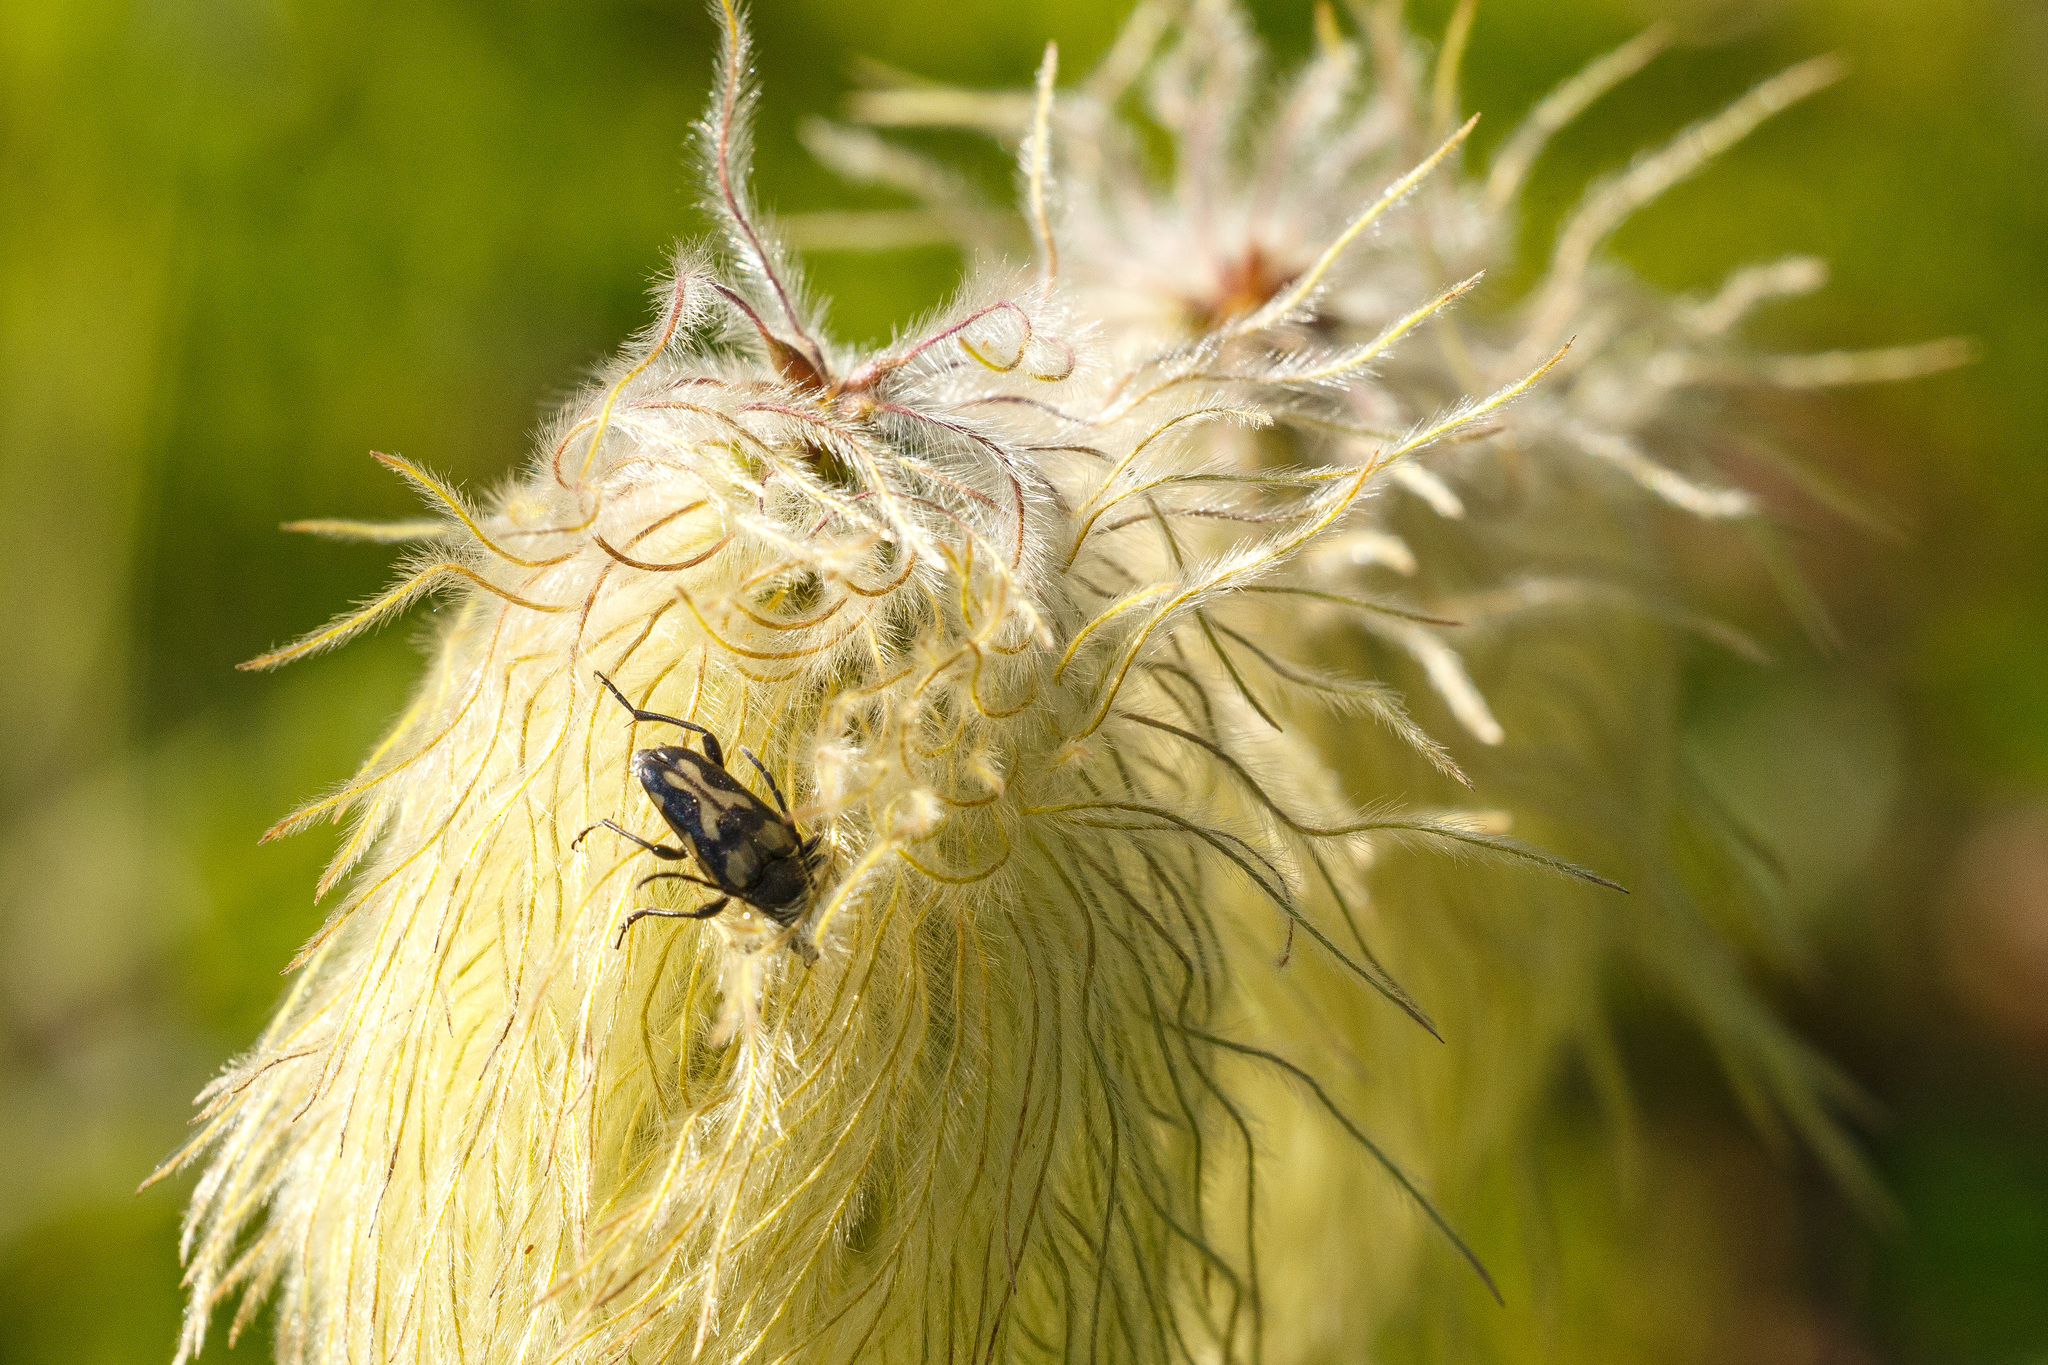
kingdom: Animalia
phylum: Arthropoda
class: Insecta
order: Coleoptera
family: Cerambycidae
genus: Judolia
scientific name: Judolia instabilis
